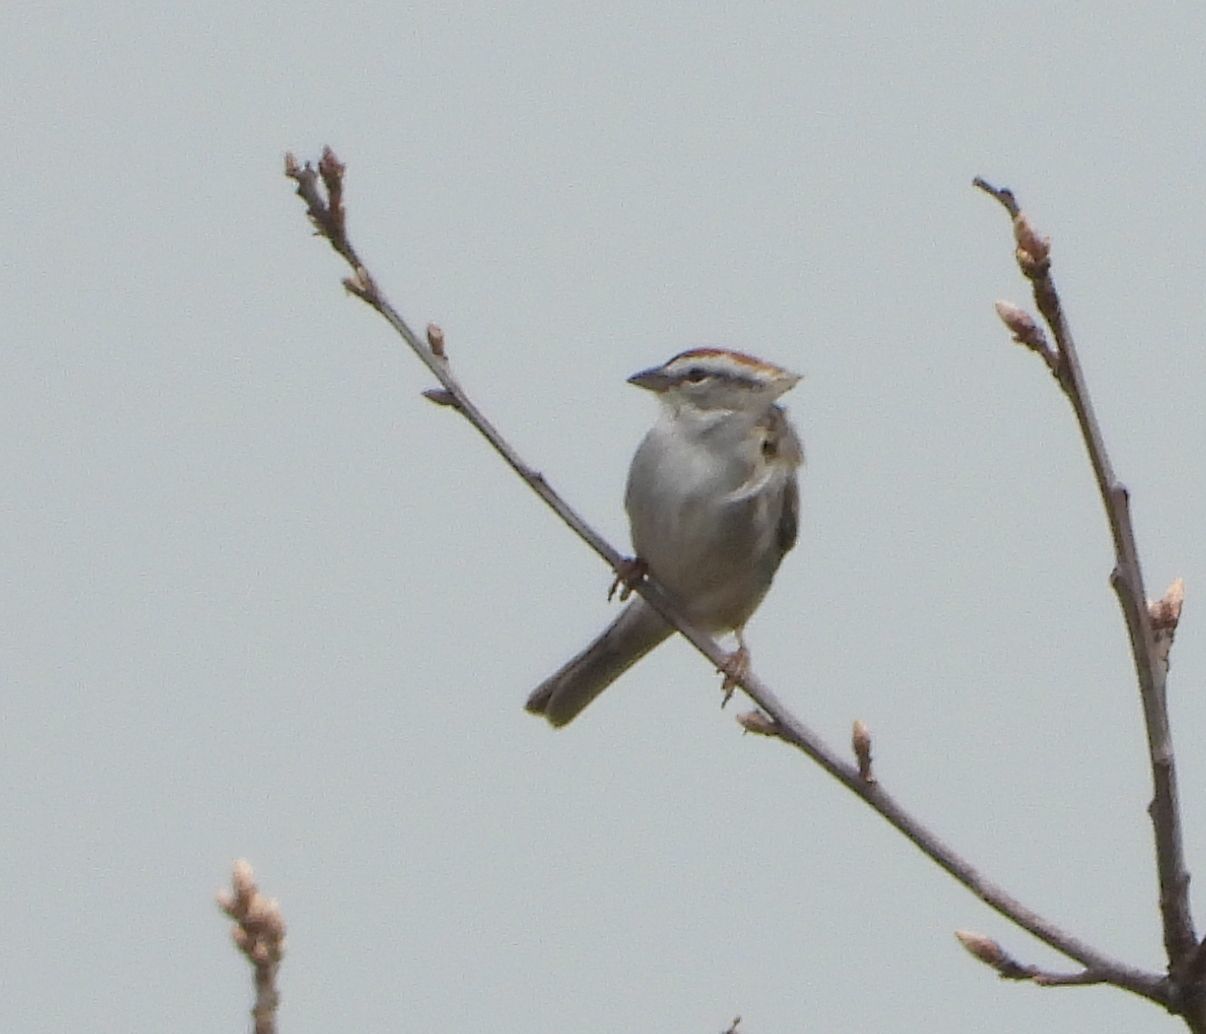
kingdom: Animalia
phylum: Chordata
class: Aves
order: Passeriformes
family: Passerellidae
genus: Spizella
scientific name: Spizella passerina
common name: Chipping sparrow
